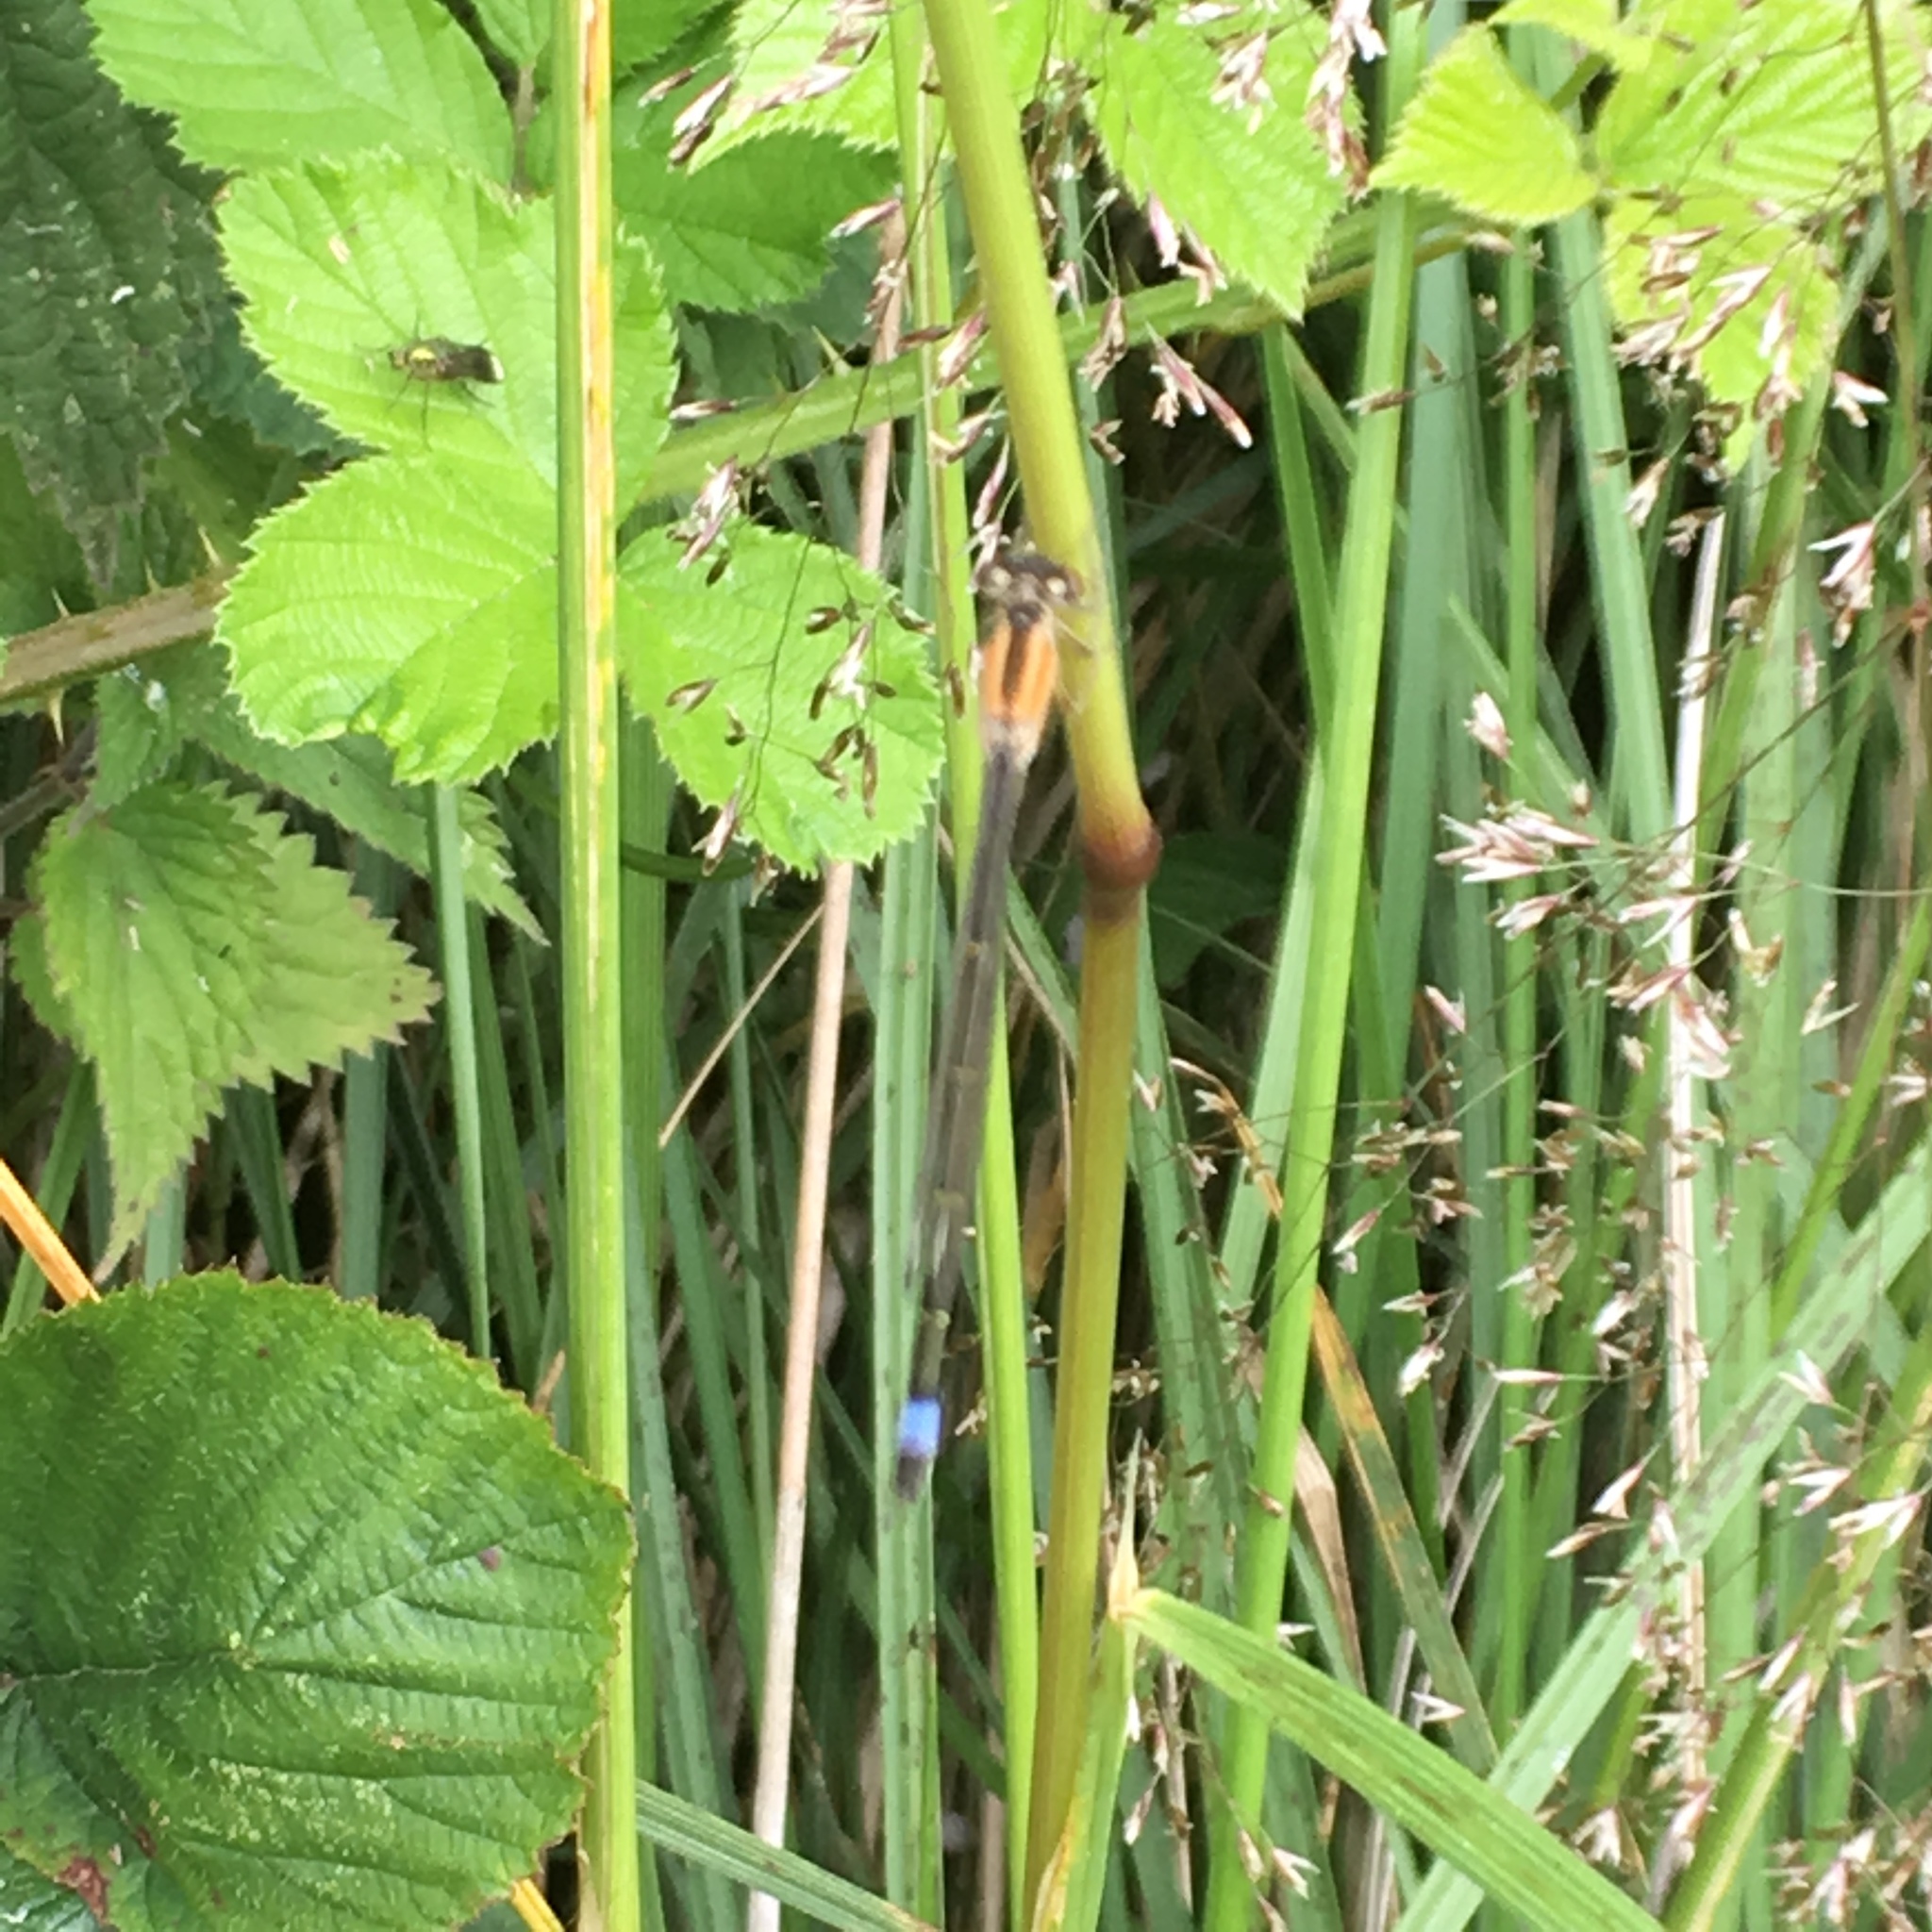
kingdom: Animalia
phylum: Arthropoda
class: Insecta
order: Odonata
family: Coenagrionidae
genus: Ischnura
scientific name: Ischnura elegans
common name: Blue-tailed damselfly
